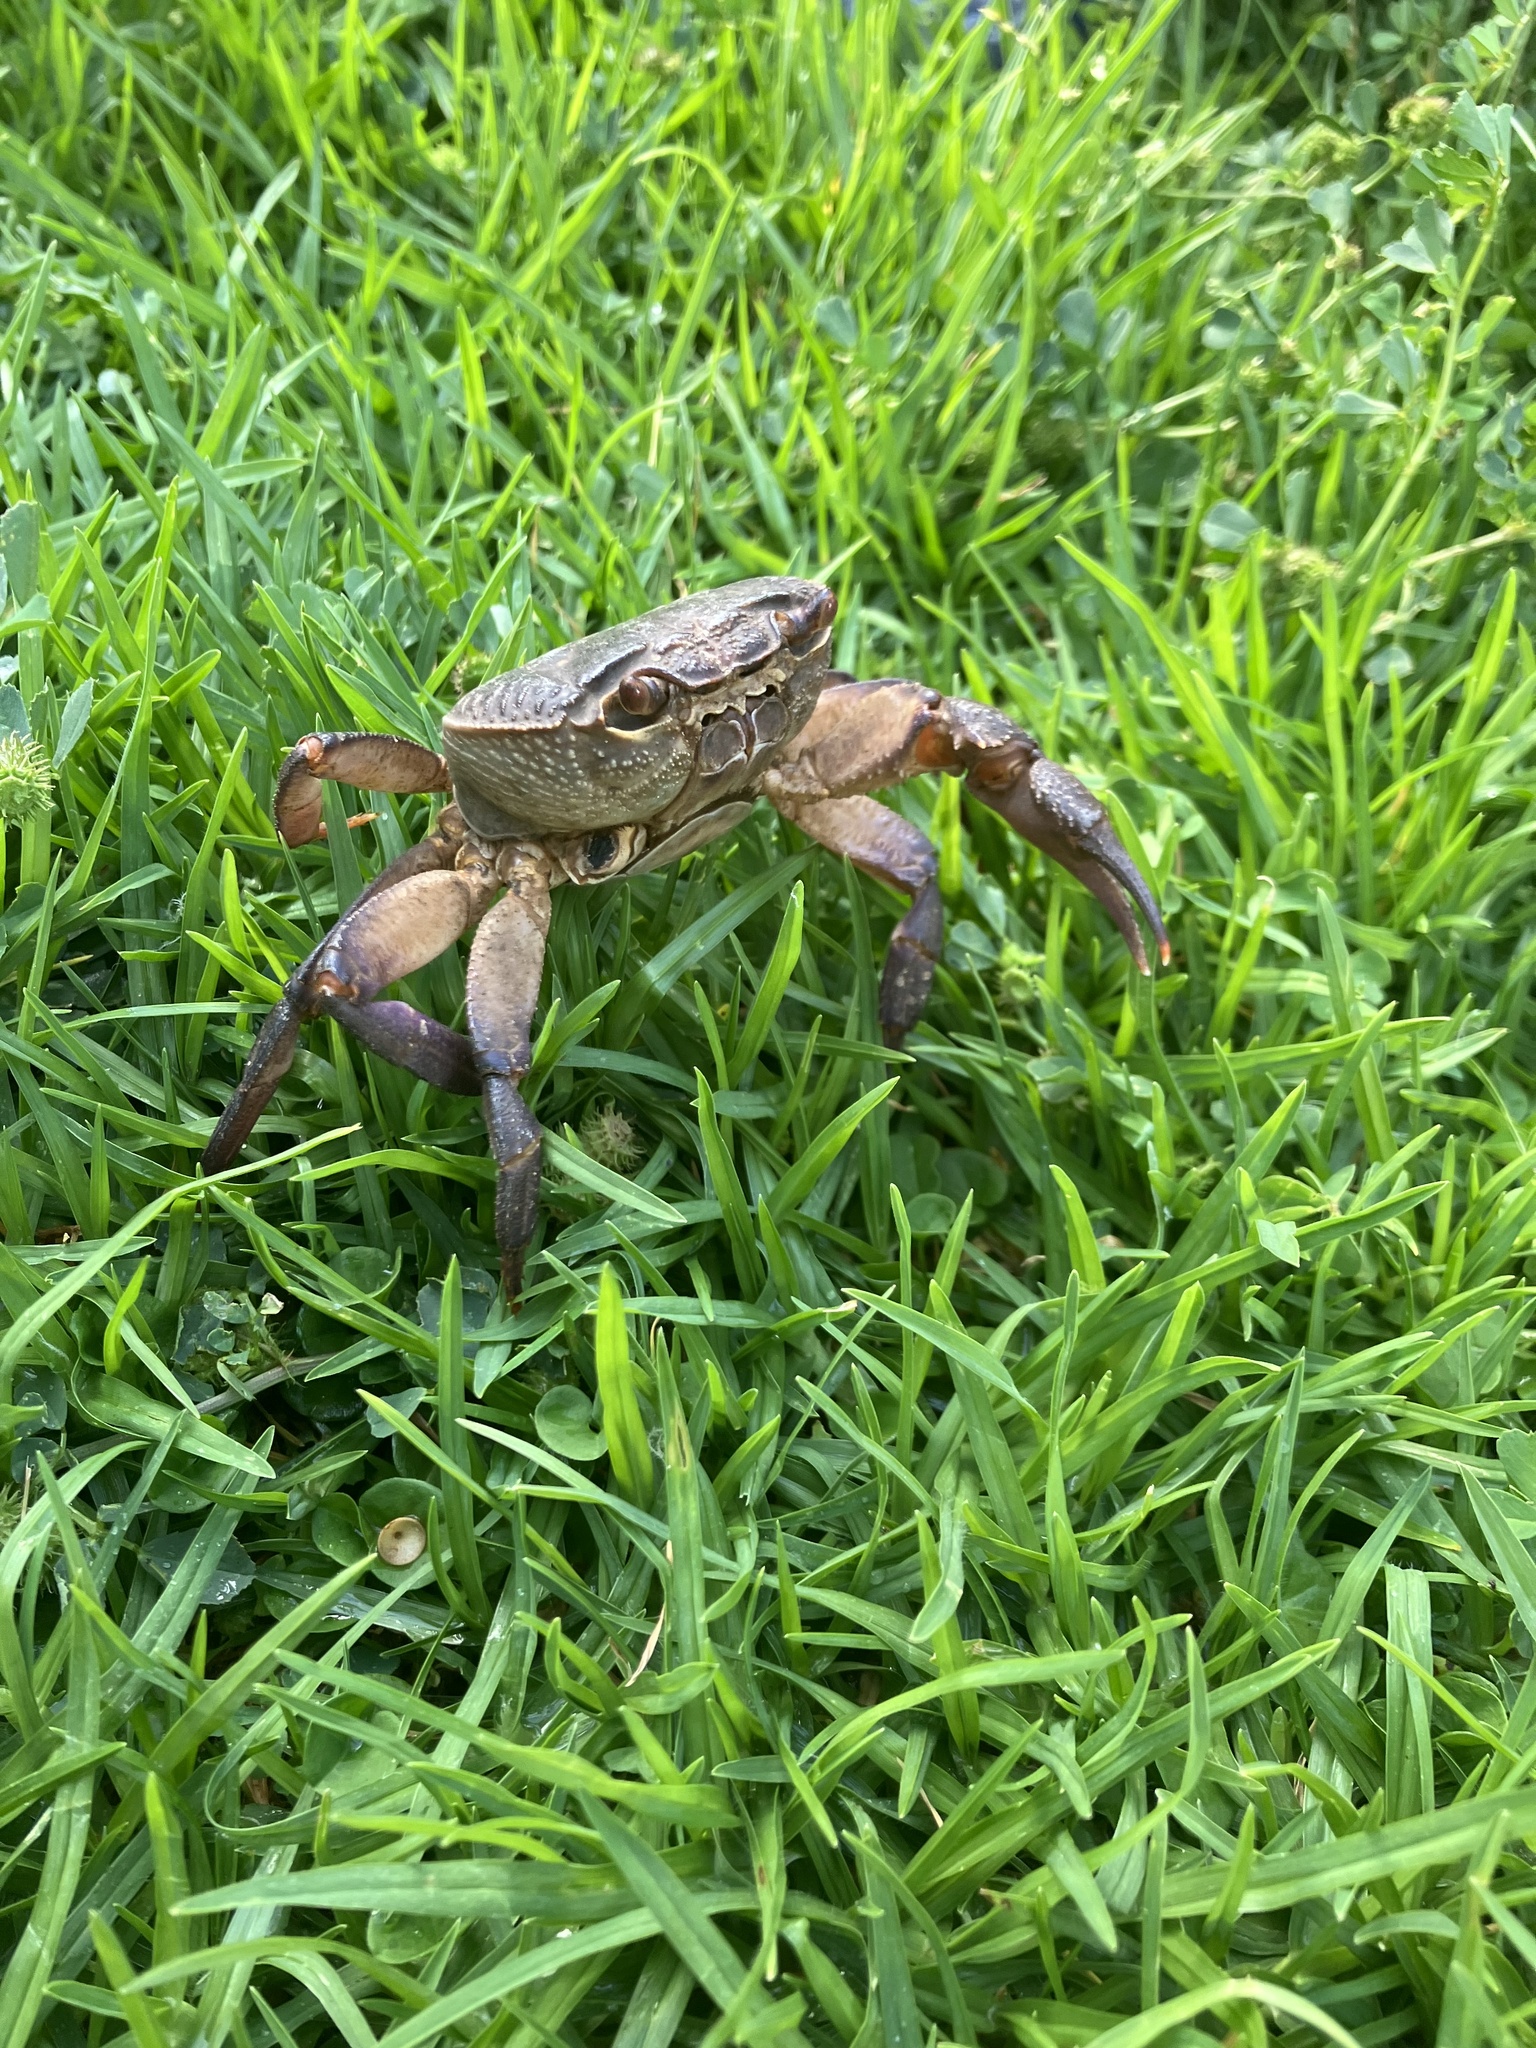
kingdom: Animalia
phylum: Arthropoda
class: Malacostraca
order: Decapoda
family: Potamidae
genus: Potamon
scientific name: Potamon potamios
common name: Aegean freshwater crab
